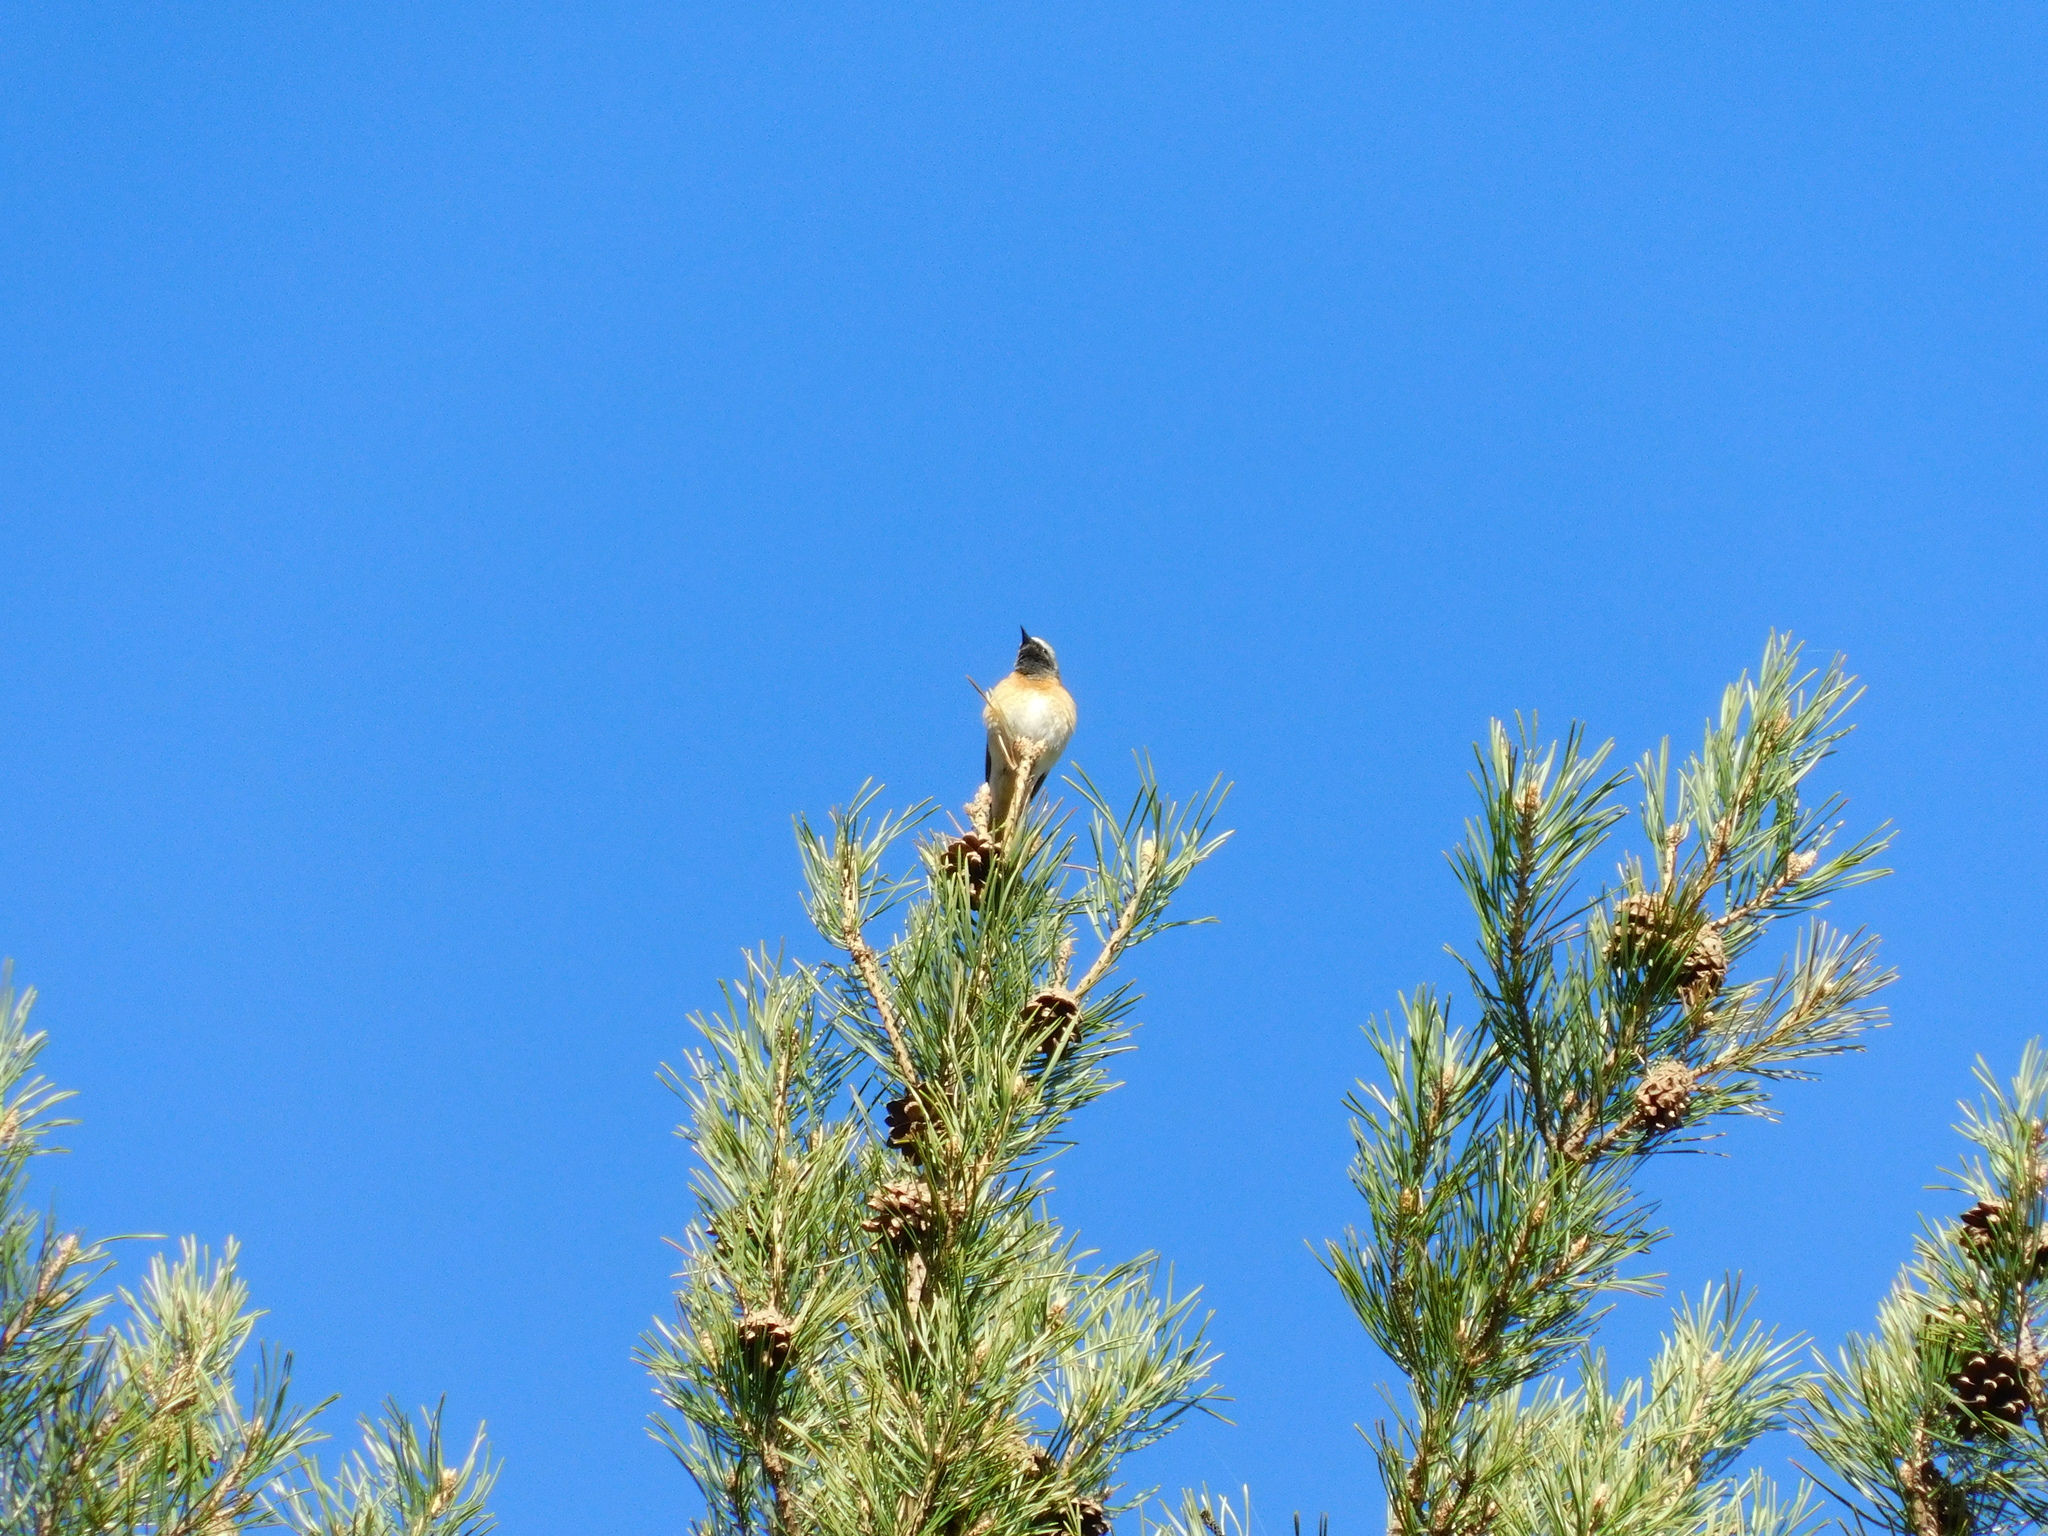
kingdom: Animalia
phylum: Chordata
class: Aves
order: Passeriformes
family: Muscicapidae
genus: Phoenicurus
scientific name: Phoenicurus phoenicurus
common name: Common redstart
